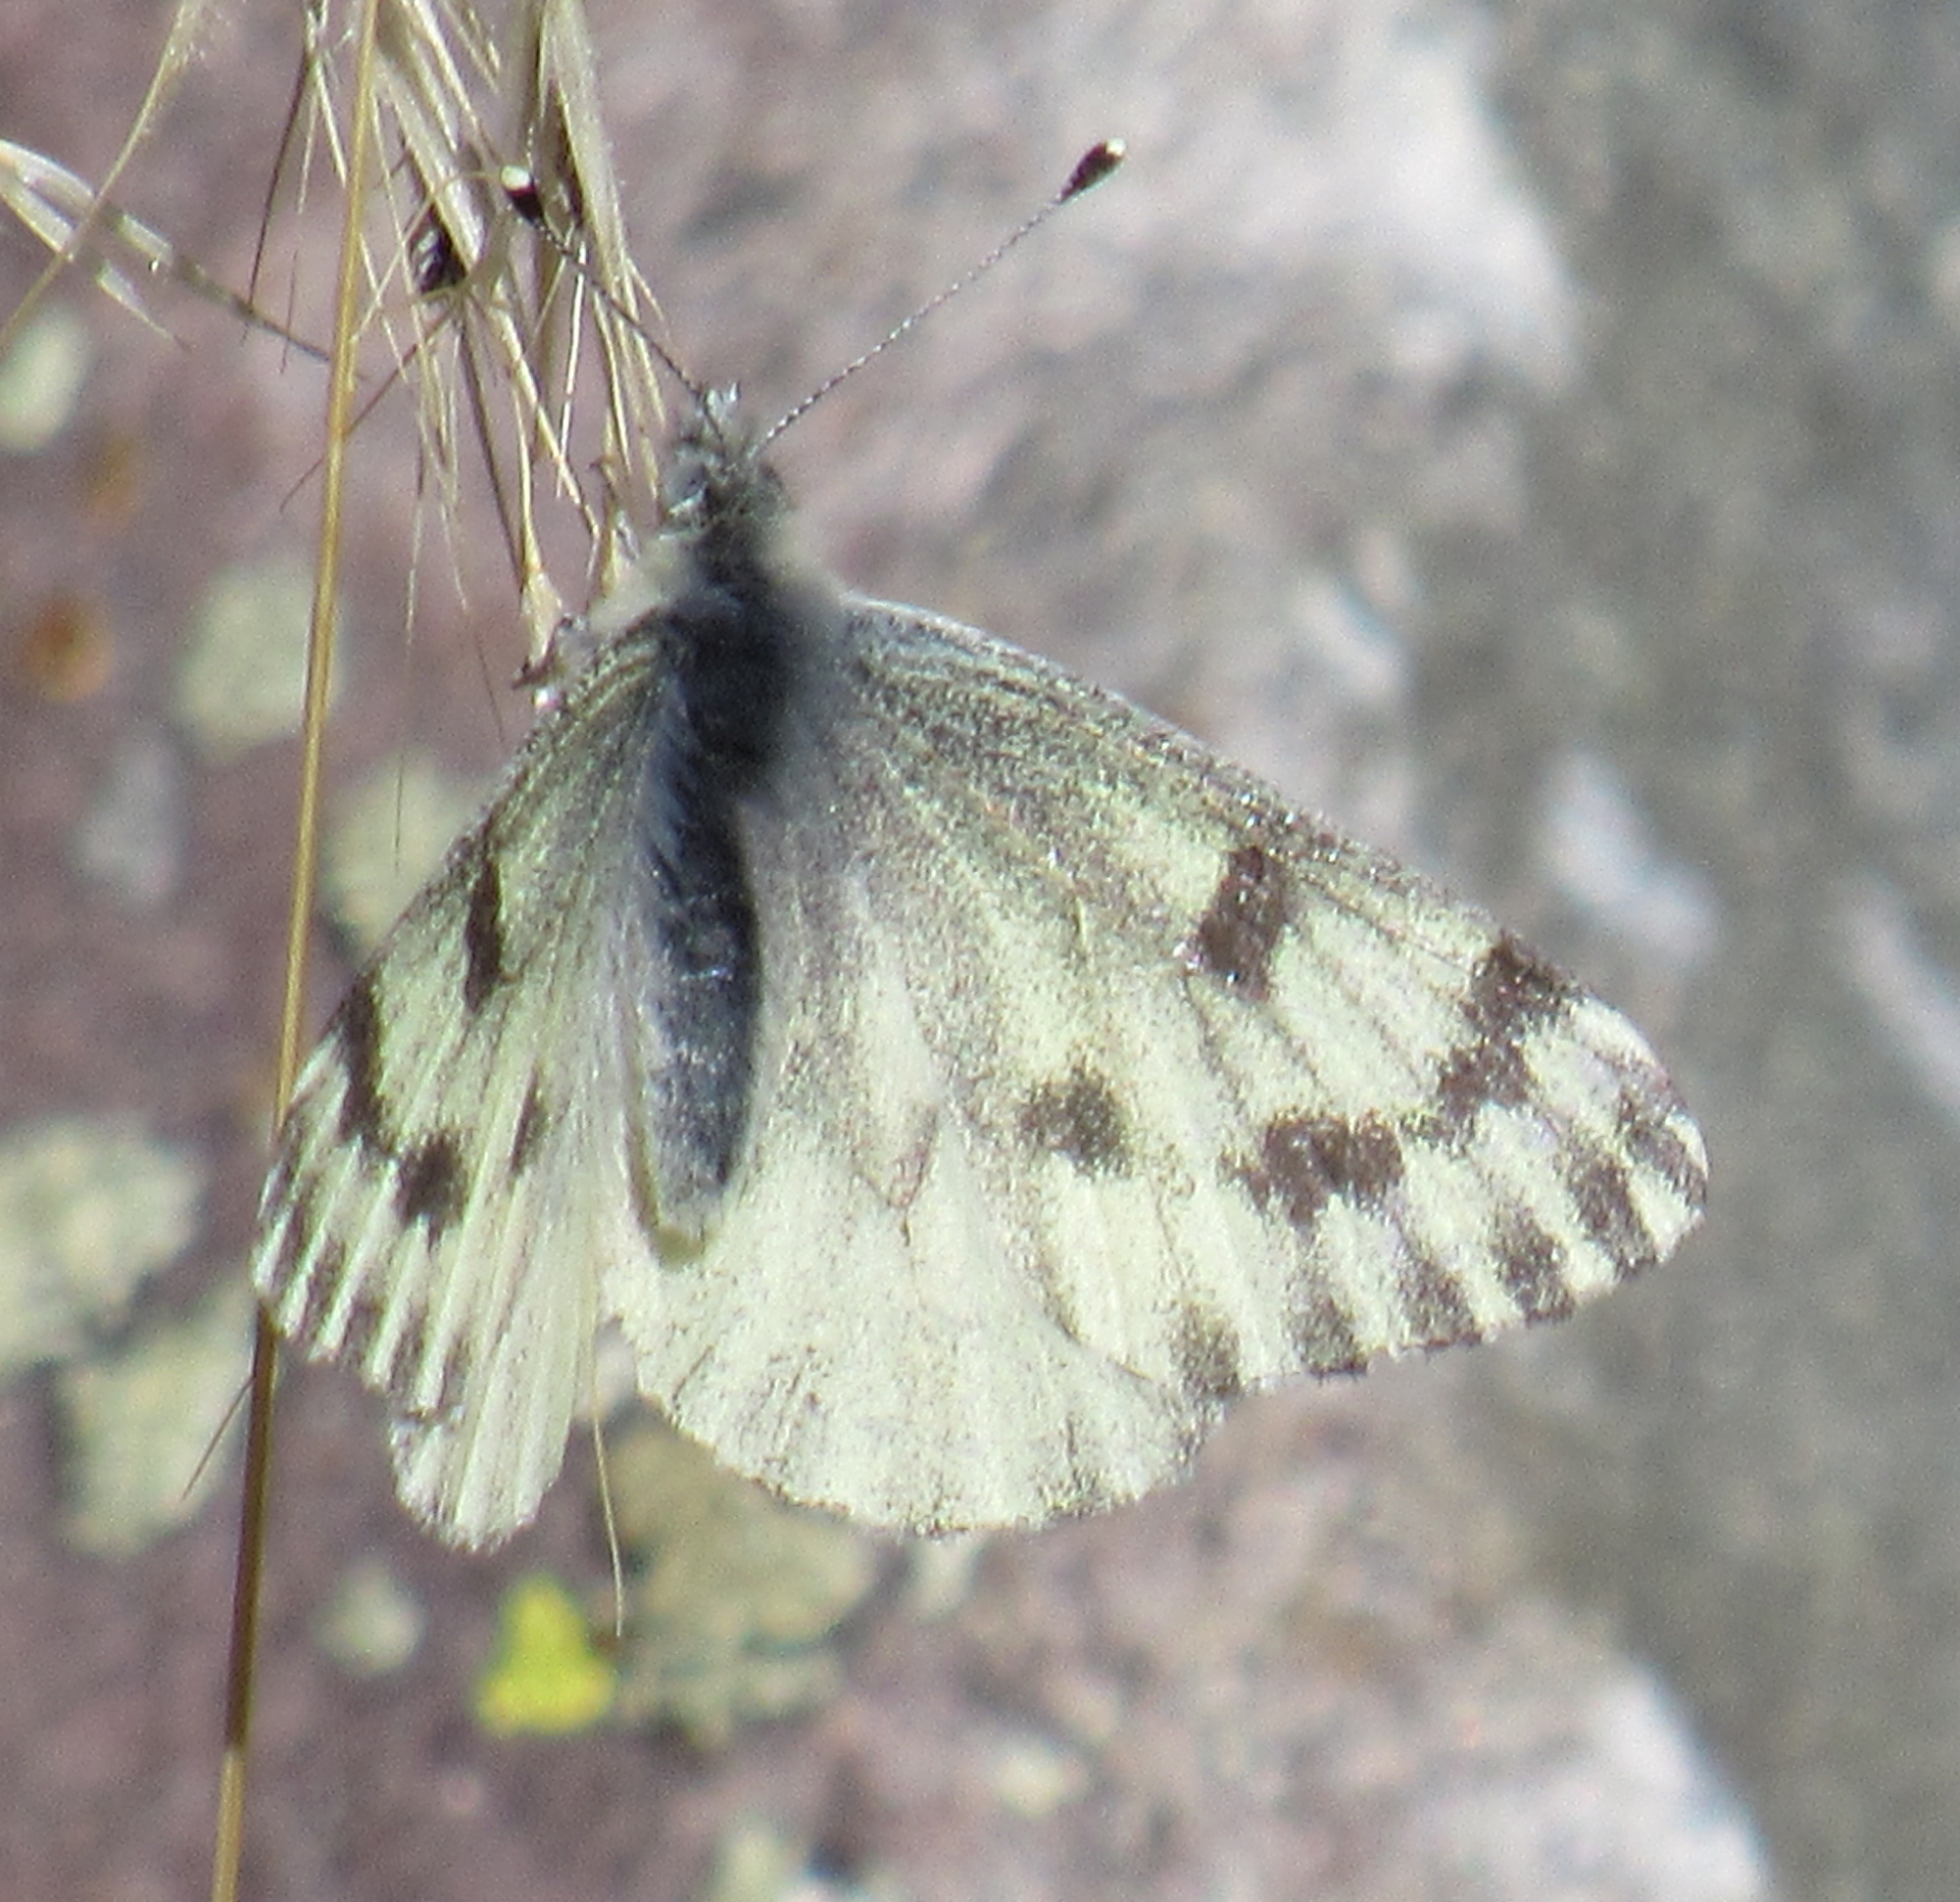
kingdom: Animalia
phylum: Arthropoda
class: Insecta
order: Lepidoptera
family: Pieridae
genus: Pontia
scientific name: Pontia sisymbrii
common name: California white
